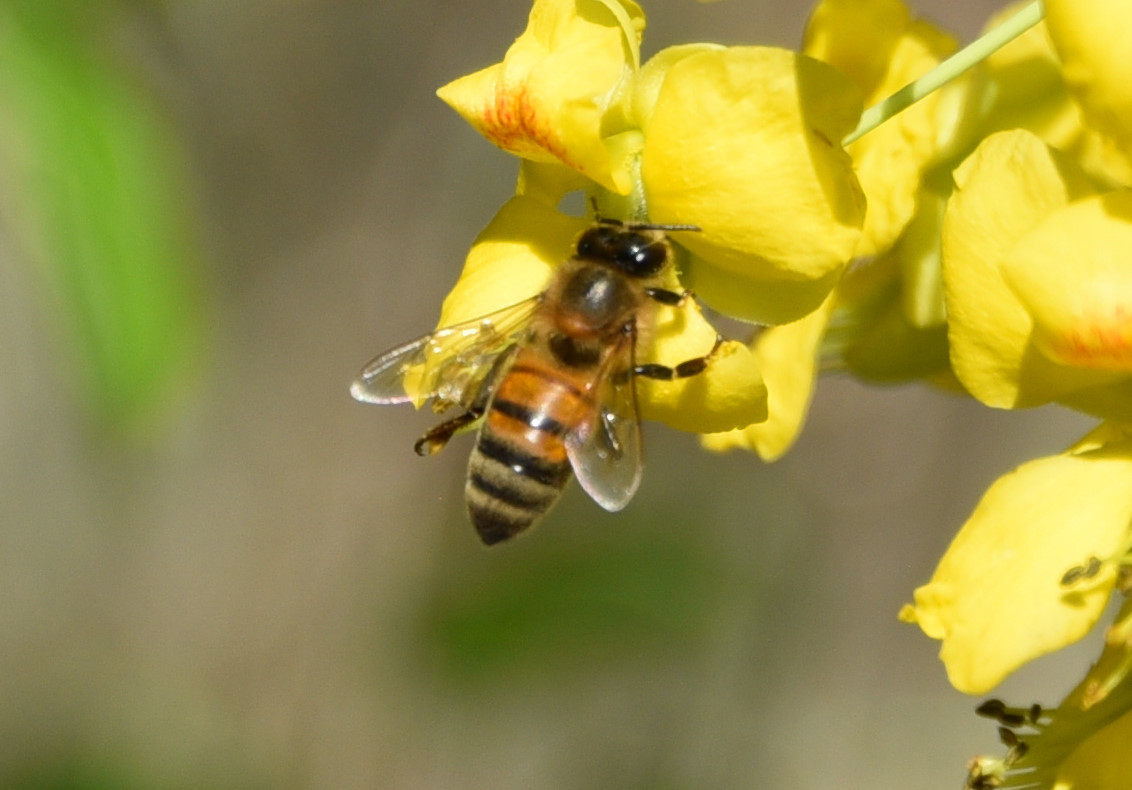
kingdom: Animalia
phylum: Arthropoda
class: Insecta
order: Hymenoptera
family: Apidae
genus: Apis
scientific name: Apis mellifera
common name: Honey bee
